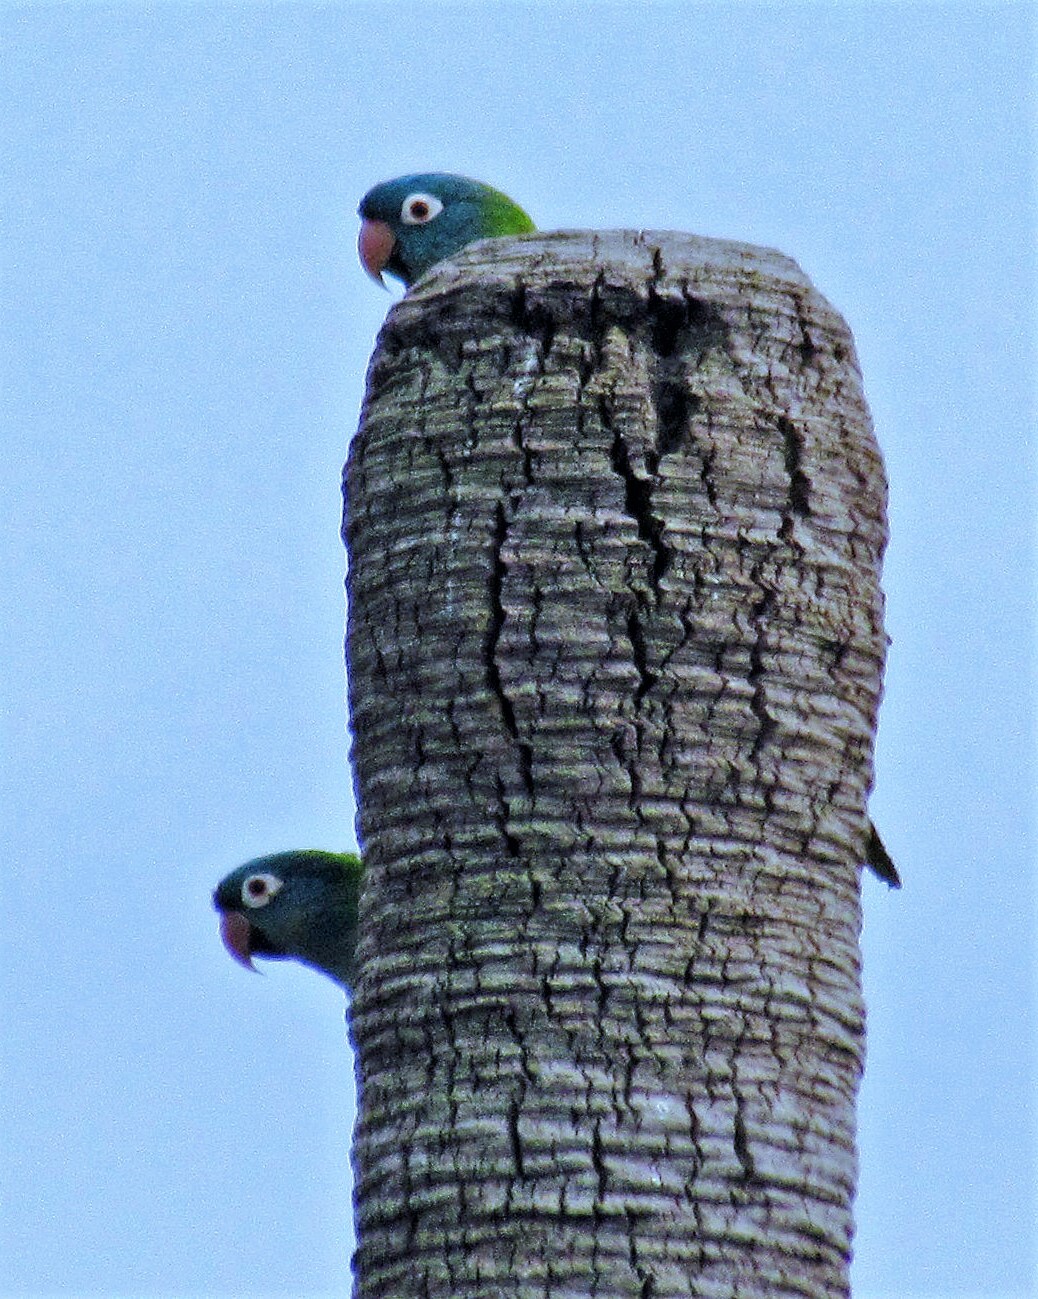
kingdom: Animalia
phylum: Chordata
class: Aves
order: Psittaciformes
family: Psittacidae
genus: Aratinga
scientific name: Aratinga acuticaudata
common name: Blue-crowned parakeet
